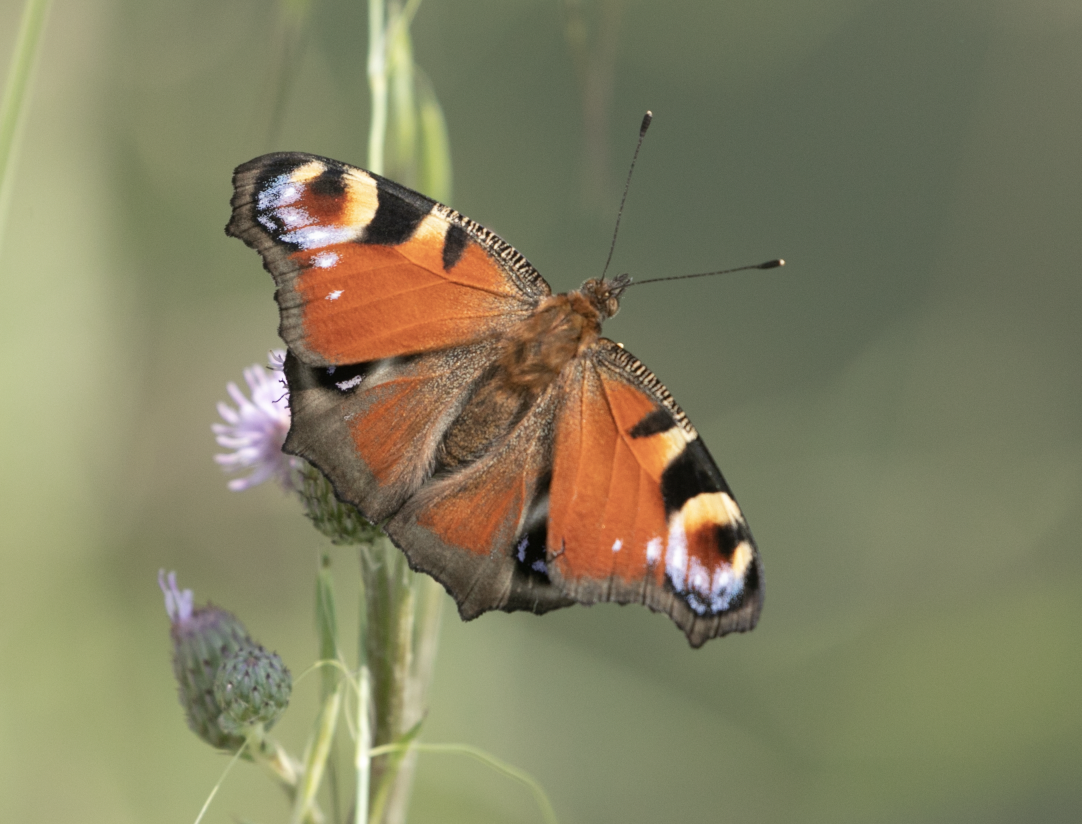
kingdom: Animalia
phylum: Arthropoda
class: Insecta
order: Lepidoptera
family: Nymphalidae
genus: Aglais
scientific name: Aglais io
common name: Peacock
